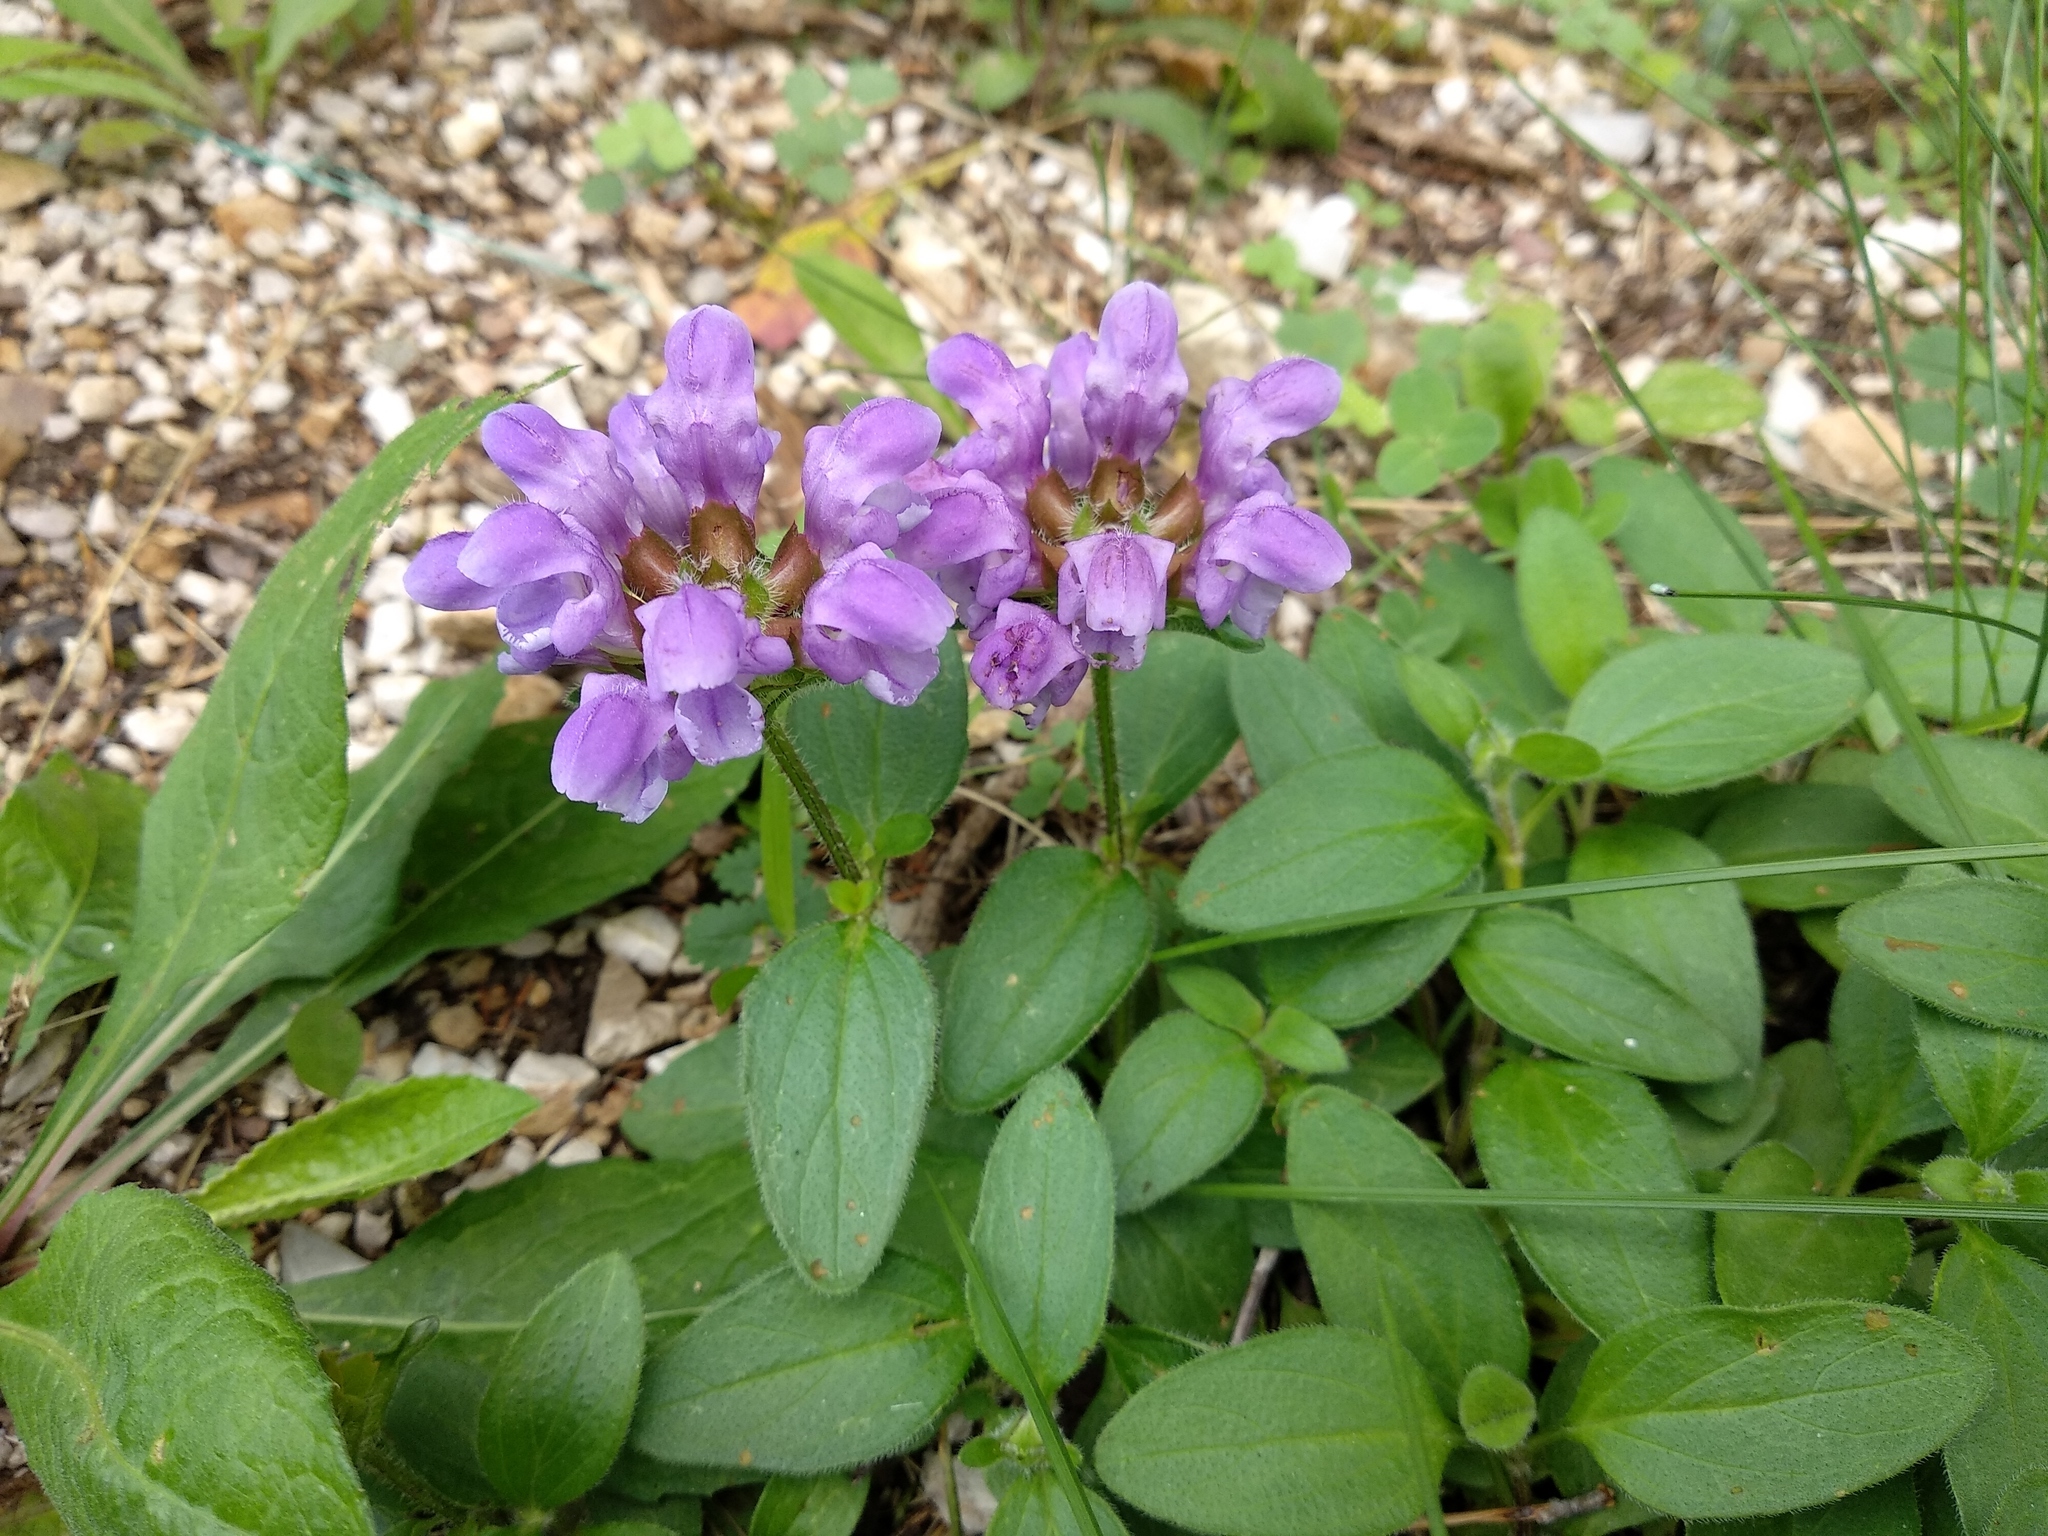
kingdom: Plantae
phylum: Tracheophyta
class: Magnoliopsida
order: Lamiales
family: Lamiaceae
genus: Prunella
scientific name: Prunella grandiflora
